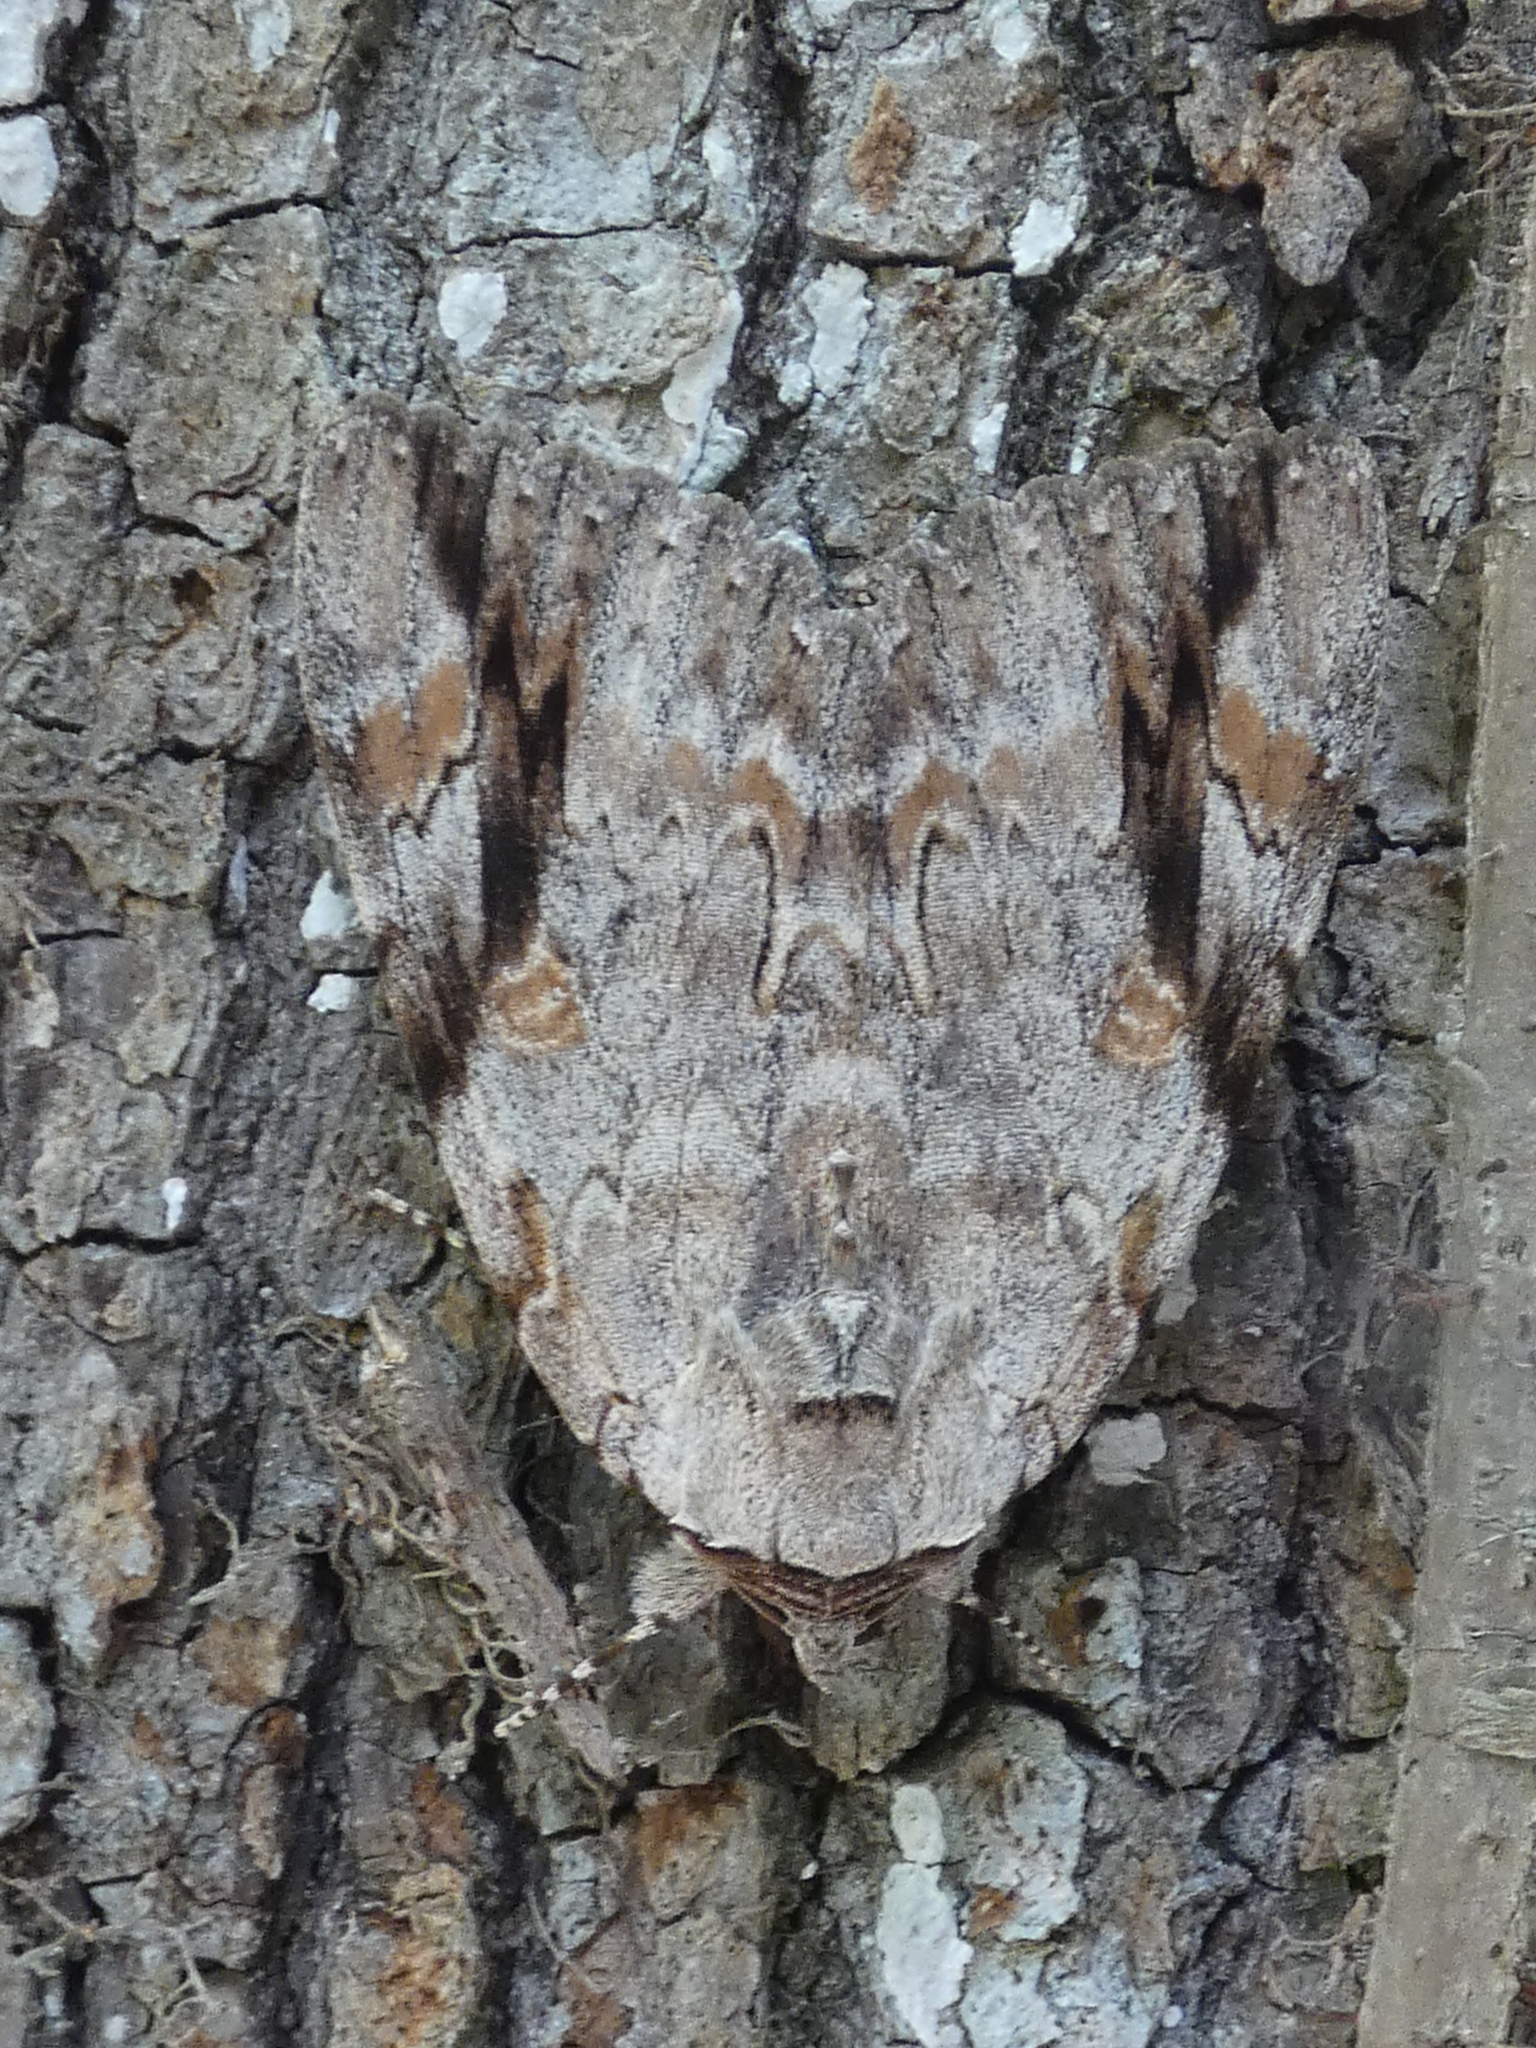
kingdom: Animalia
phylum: Arthropoda
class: Insecta
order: Lepidoptera
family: Erebidae
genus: Catocala
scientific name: Catocala maestosa
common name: Sad underwing
